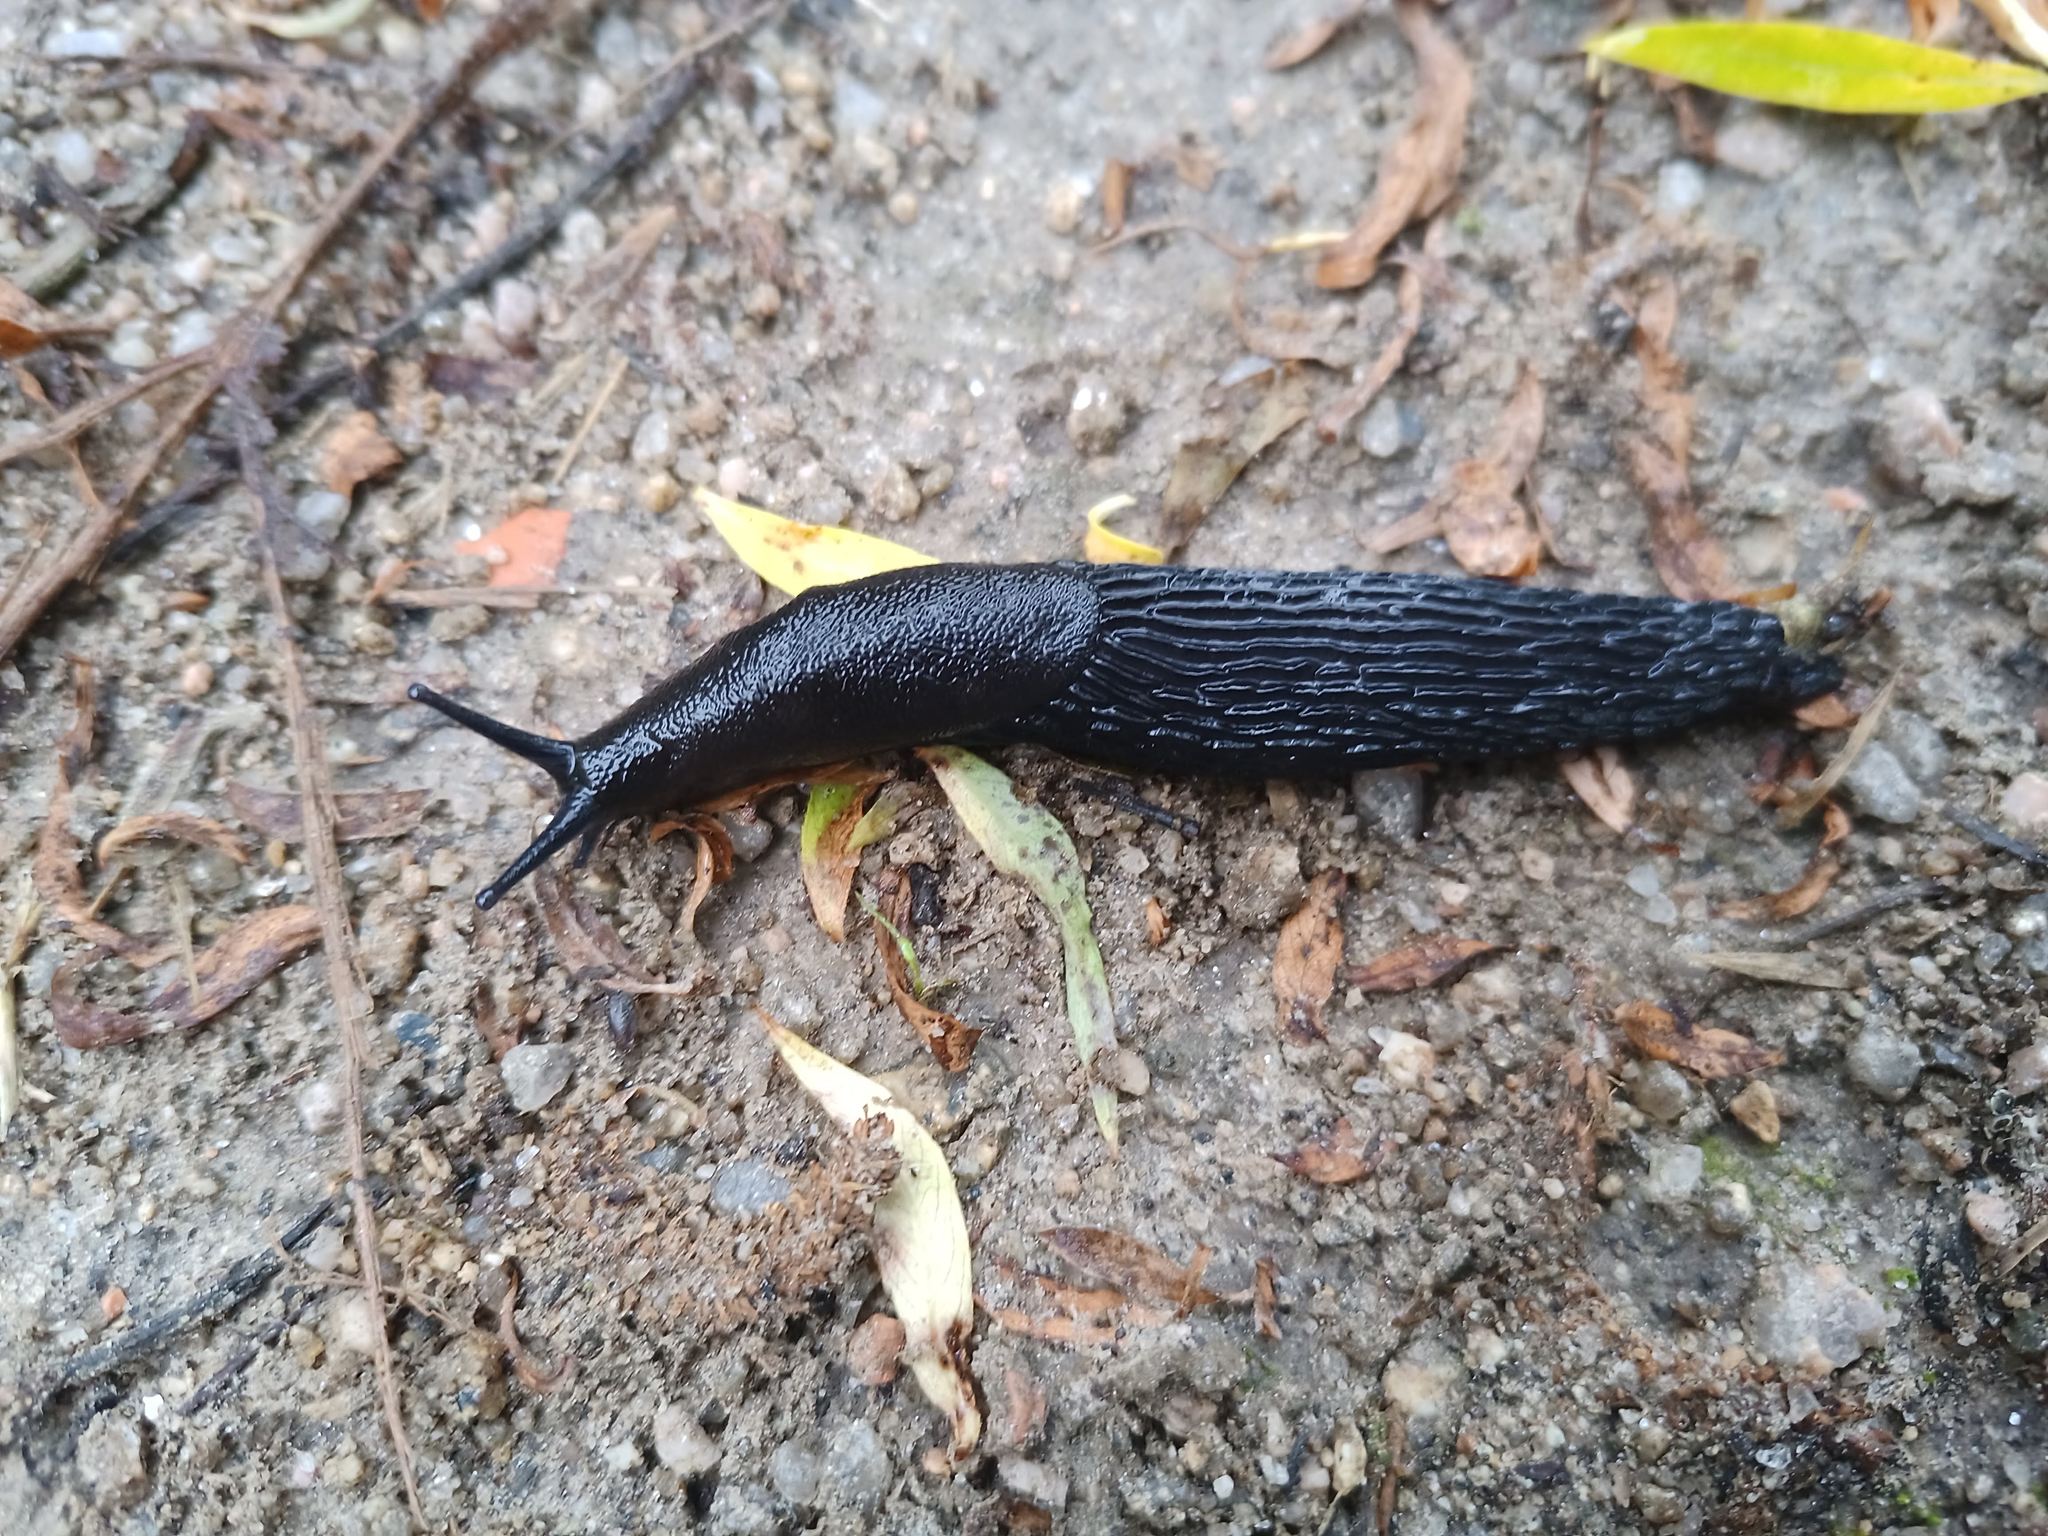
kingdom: Animalia
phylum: Mollusca
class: Gastropoda
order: Stylommatophora
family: Arionidae
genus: Arion
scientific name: Arion ater
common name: Black arion
